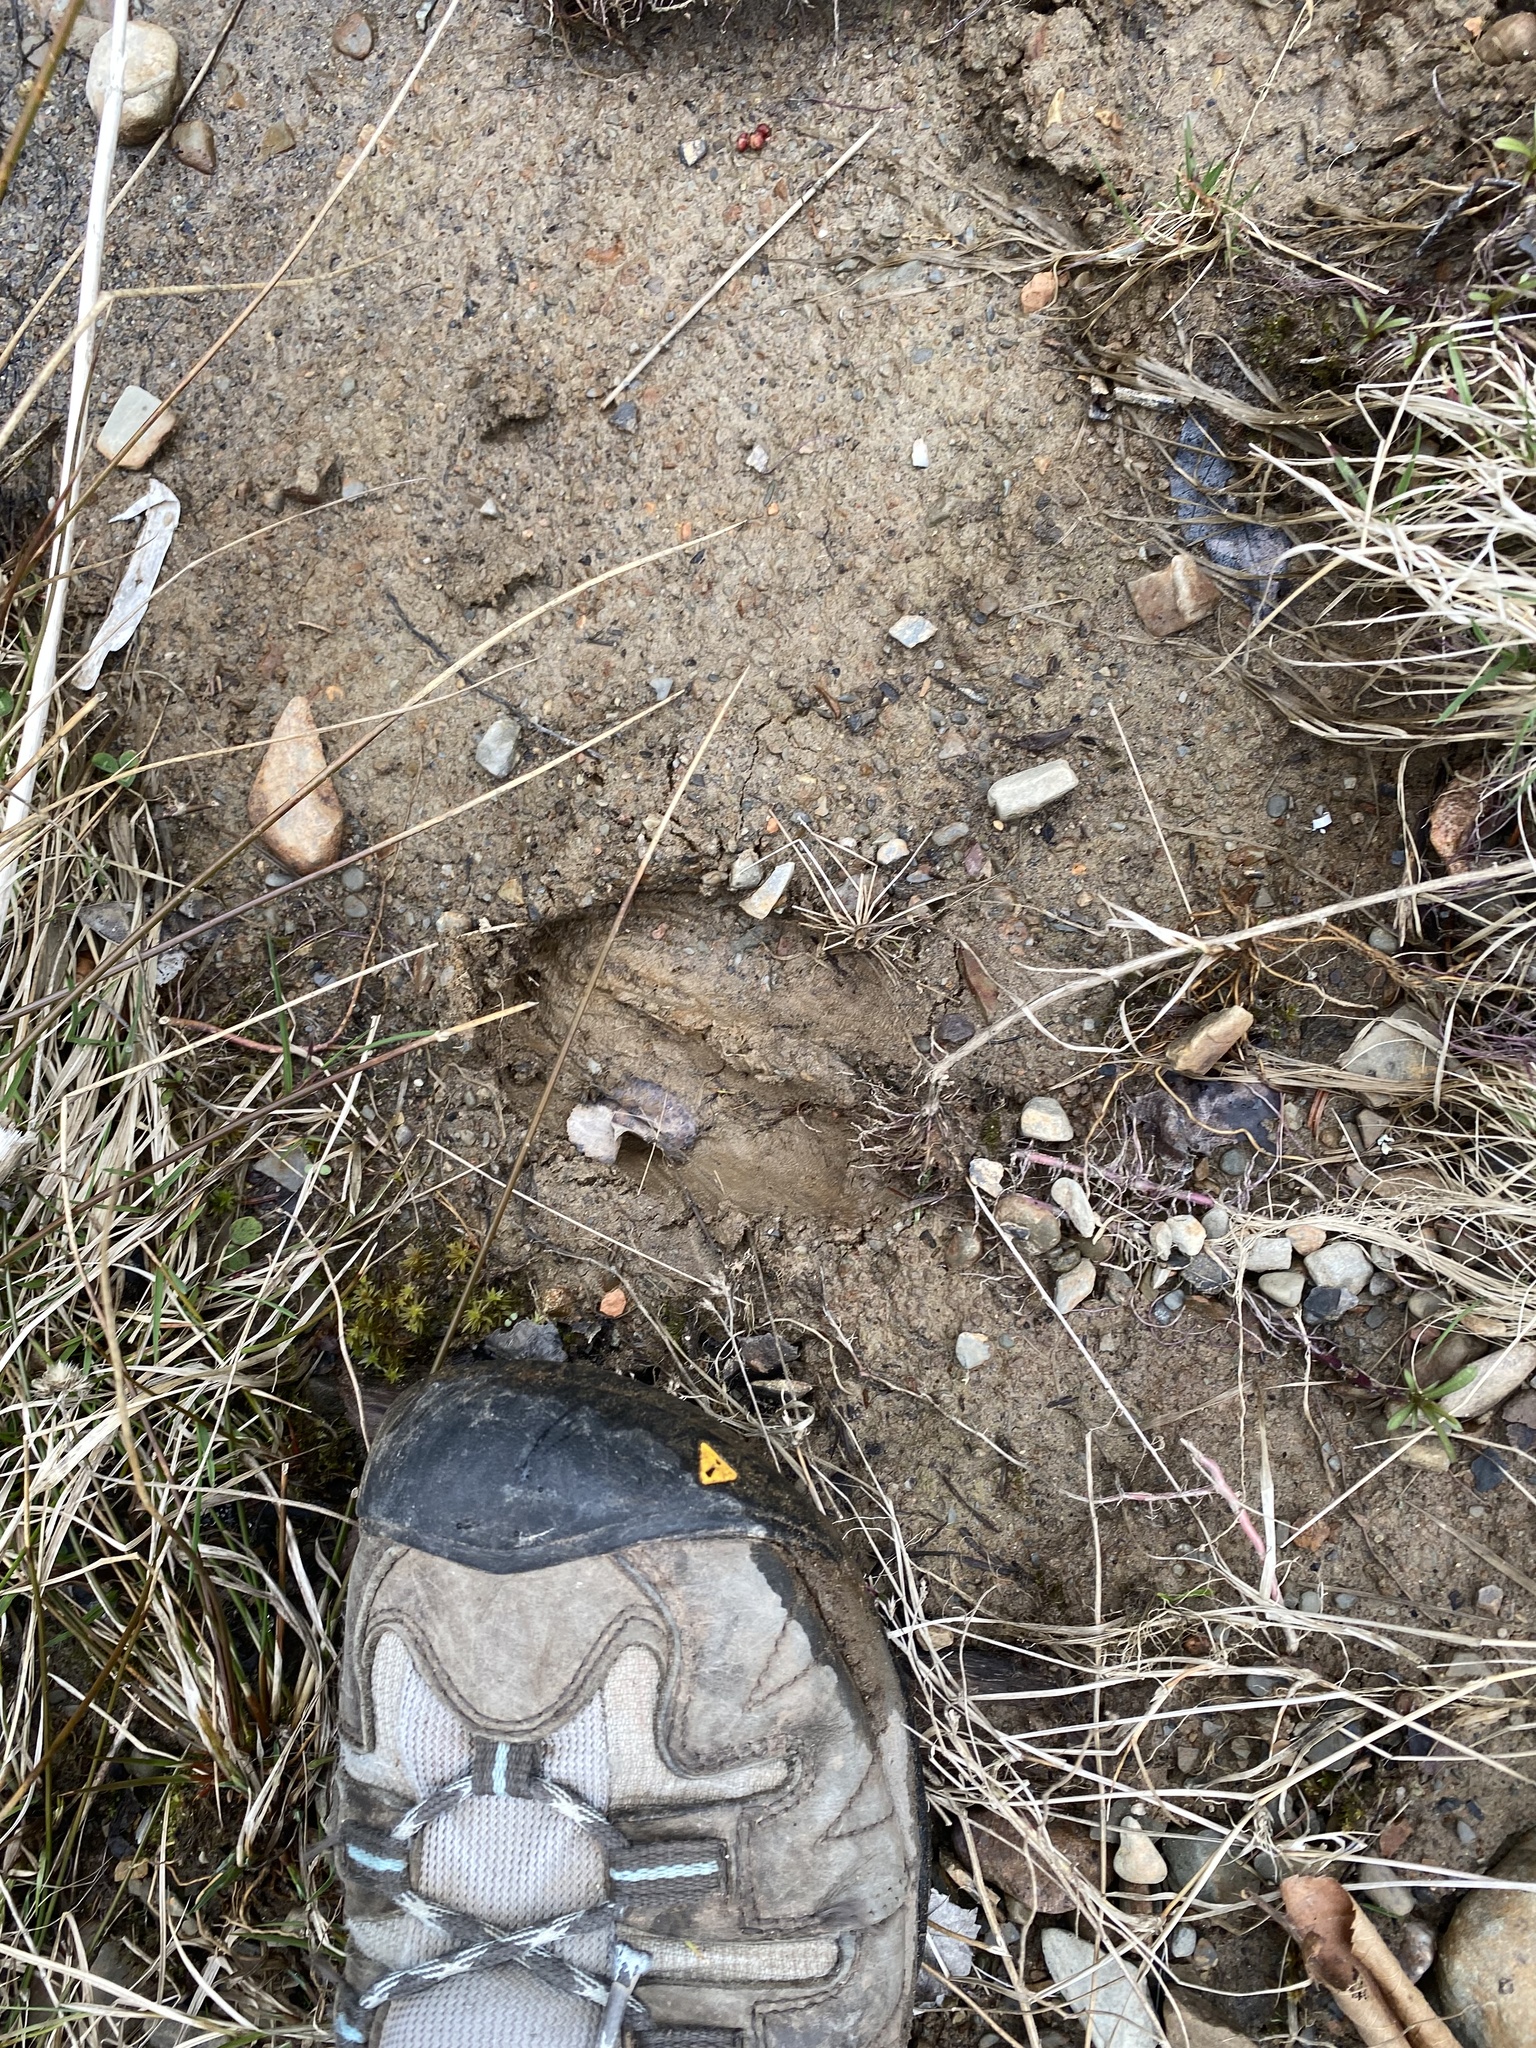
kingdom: Animalia
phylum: Chordata
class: Mammalia
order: Artiodactyla
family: Cervidae
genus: Odocoileus
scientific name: Odocoileus virginianus
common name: White-tailed deer
